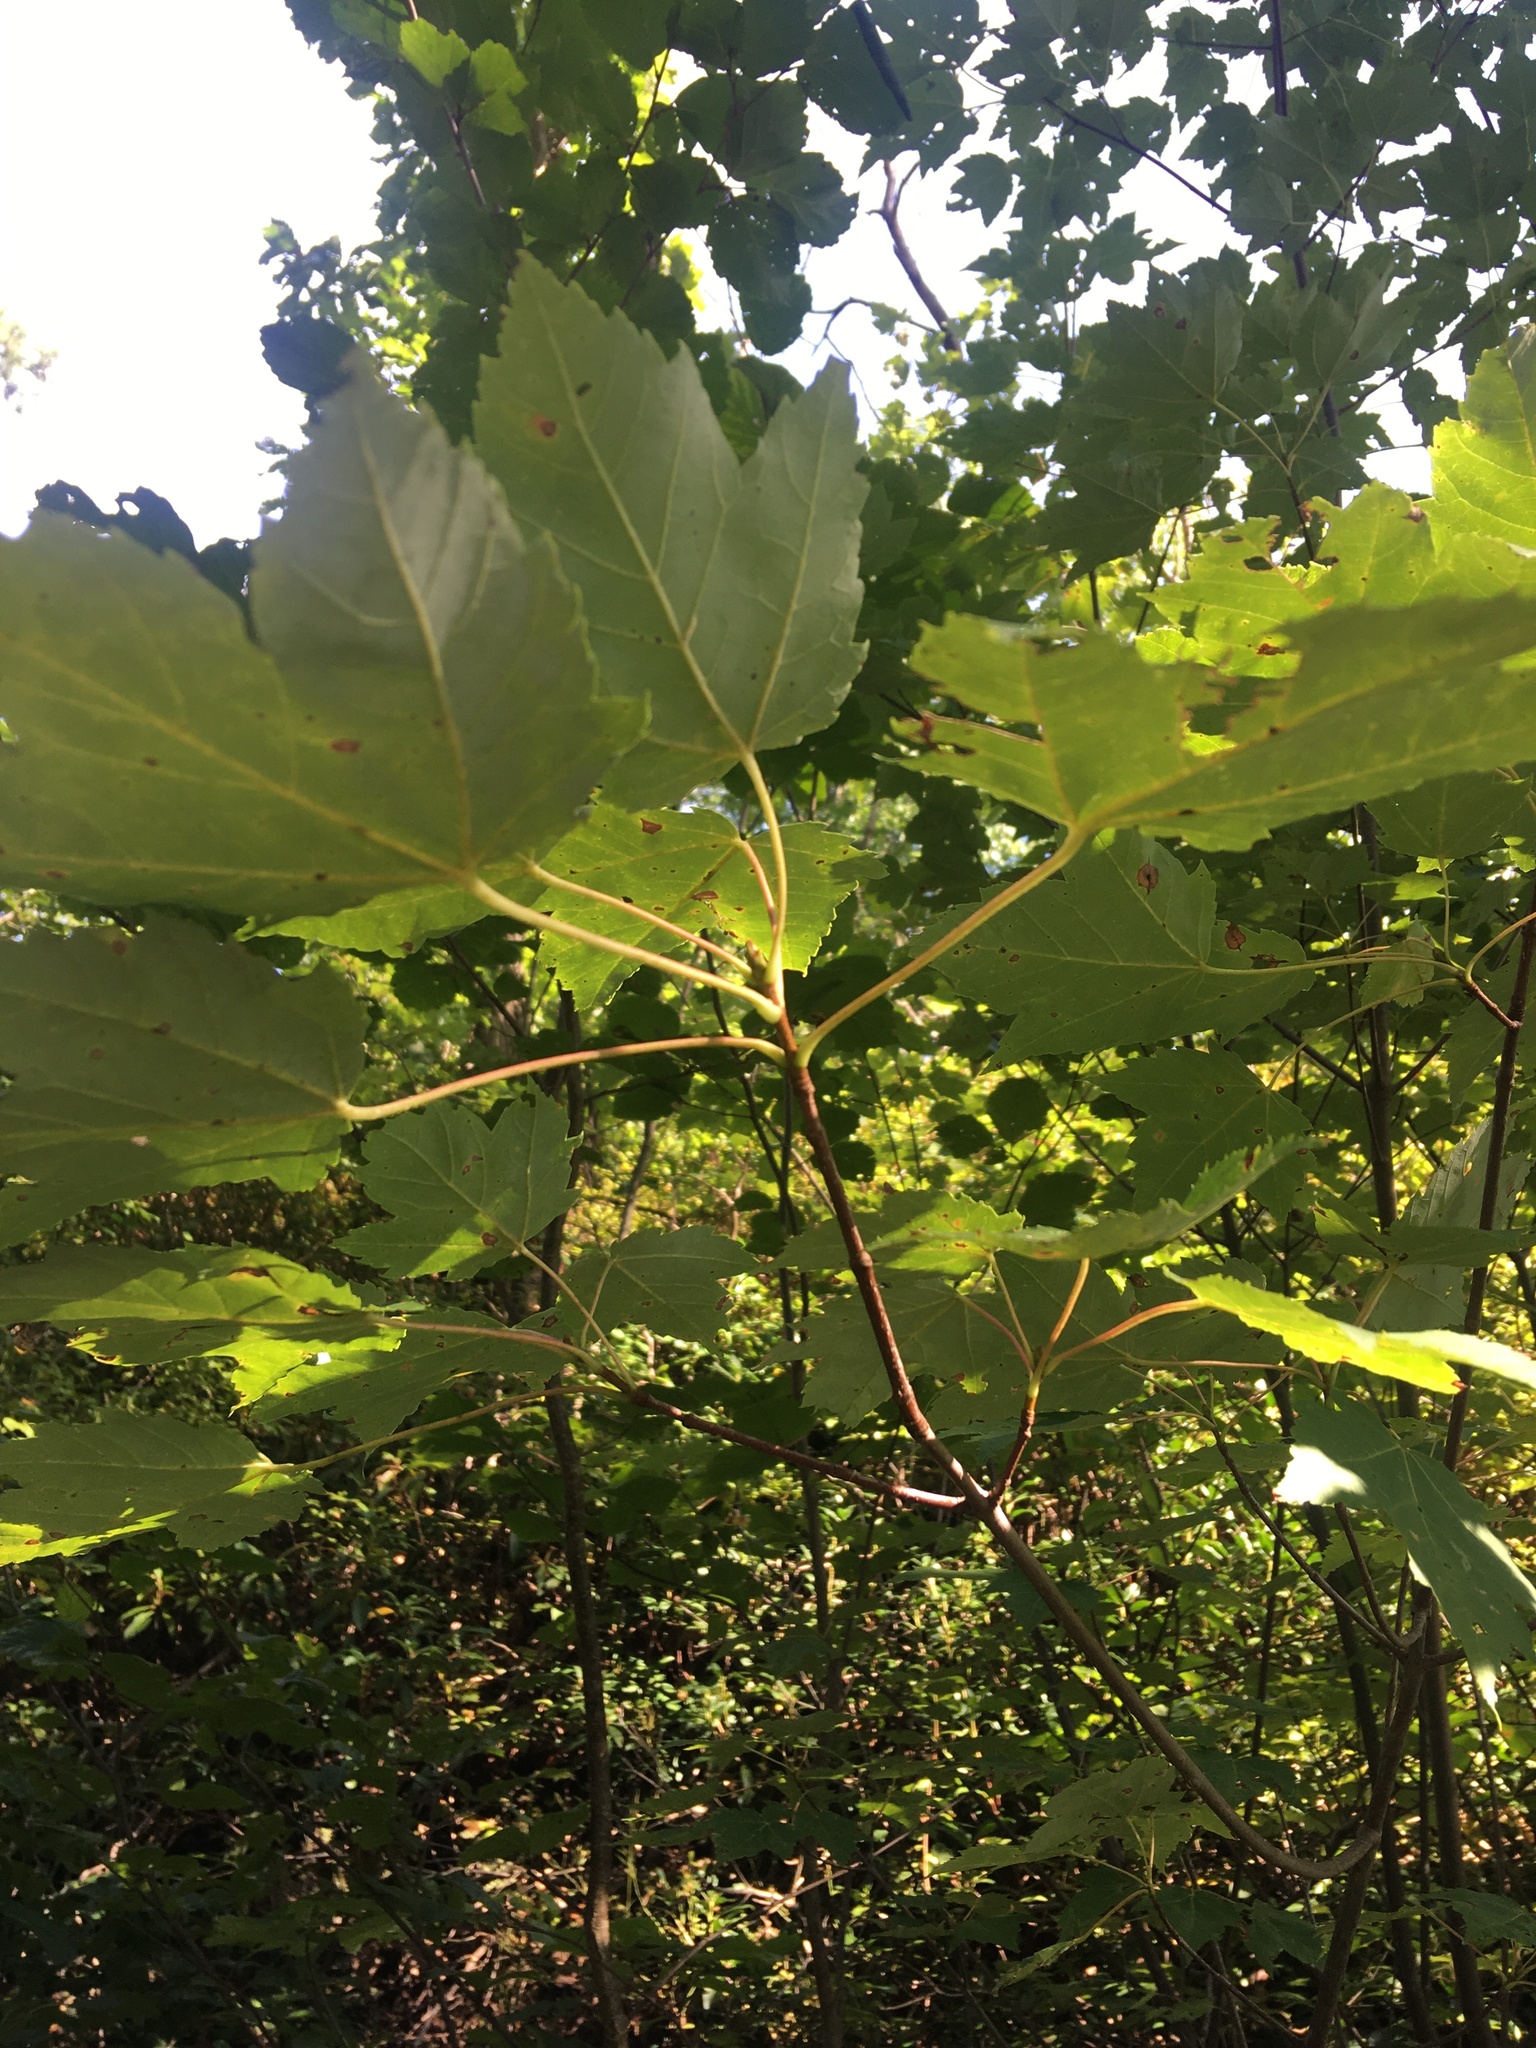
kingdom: Plantae
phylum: Tracheophyta
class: Magnoliopsida
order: Sapindales
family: Sapindaceae
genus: Acer
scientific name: Acer rubrum
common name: Red maple
